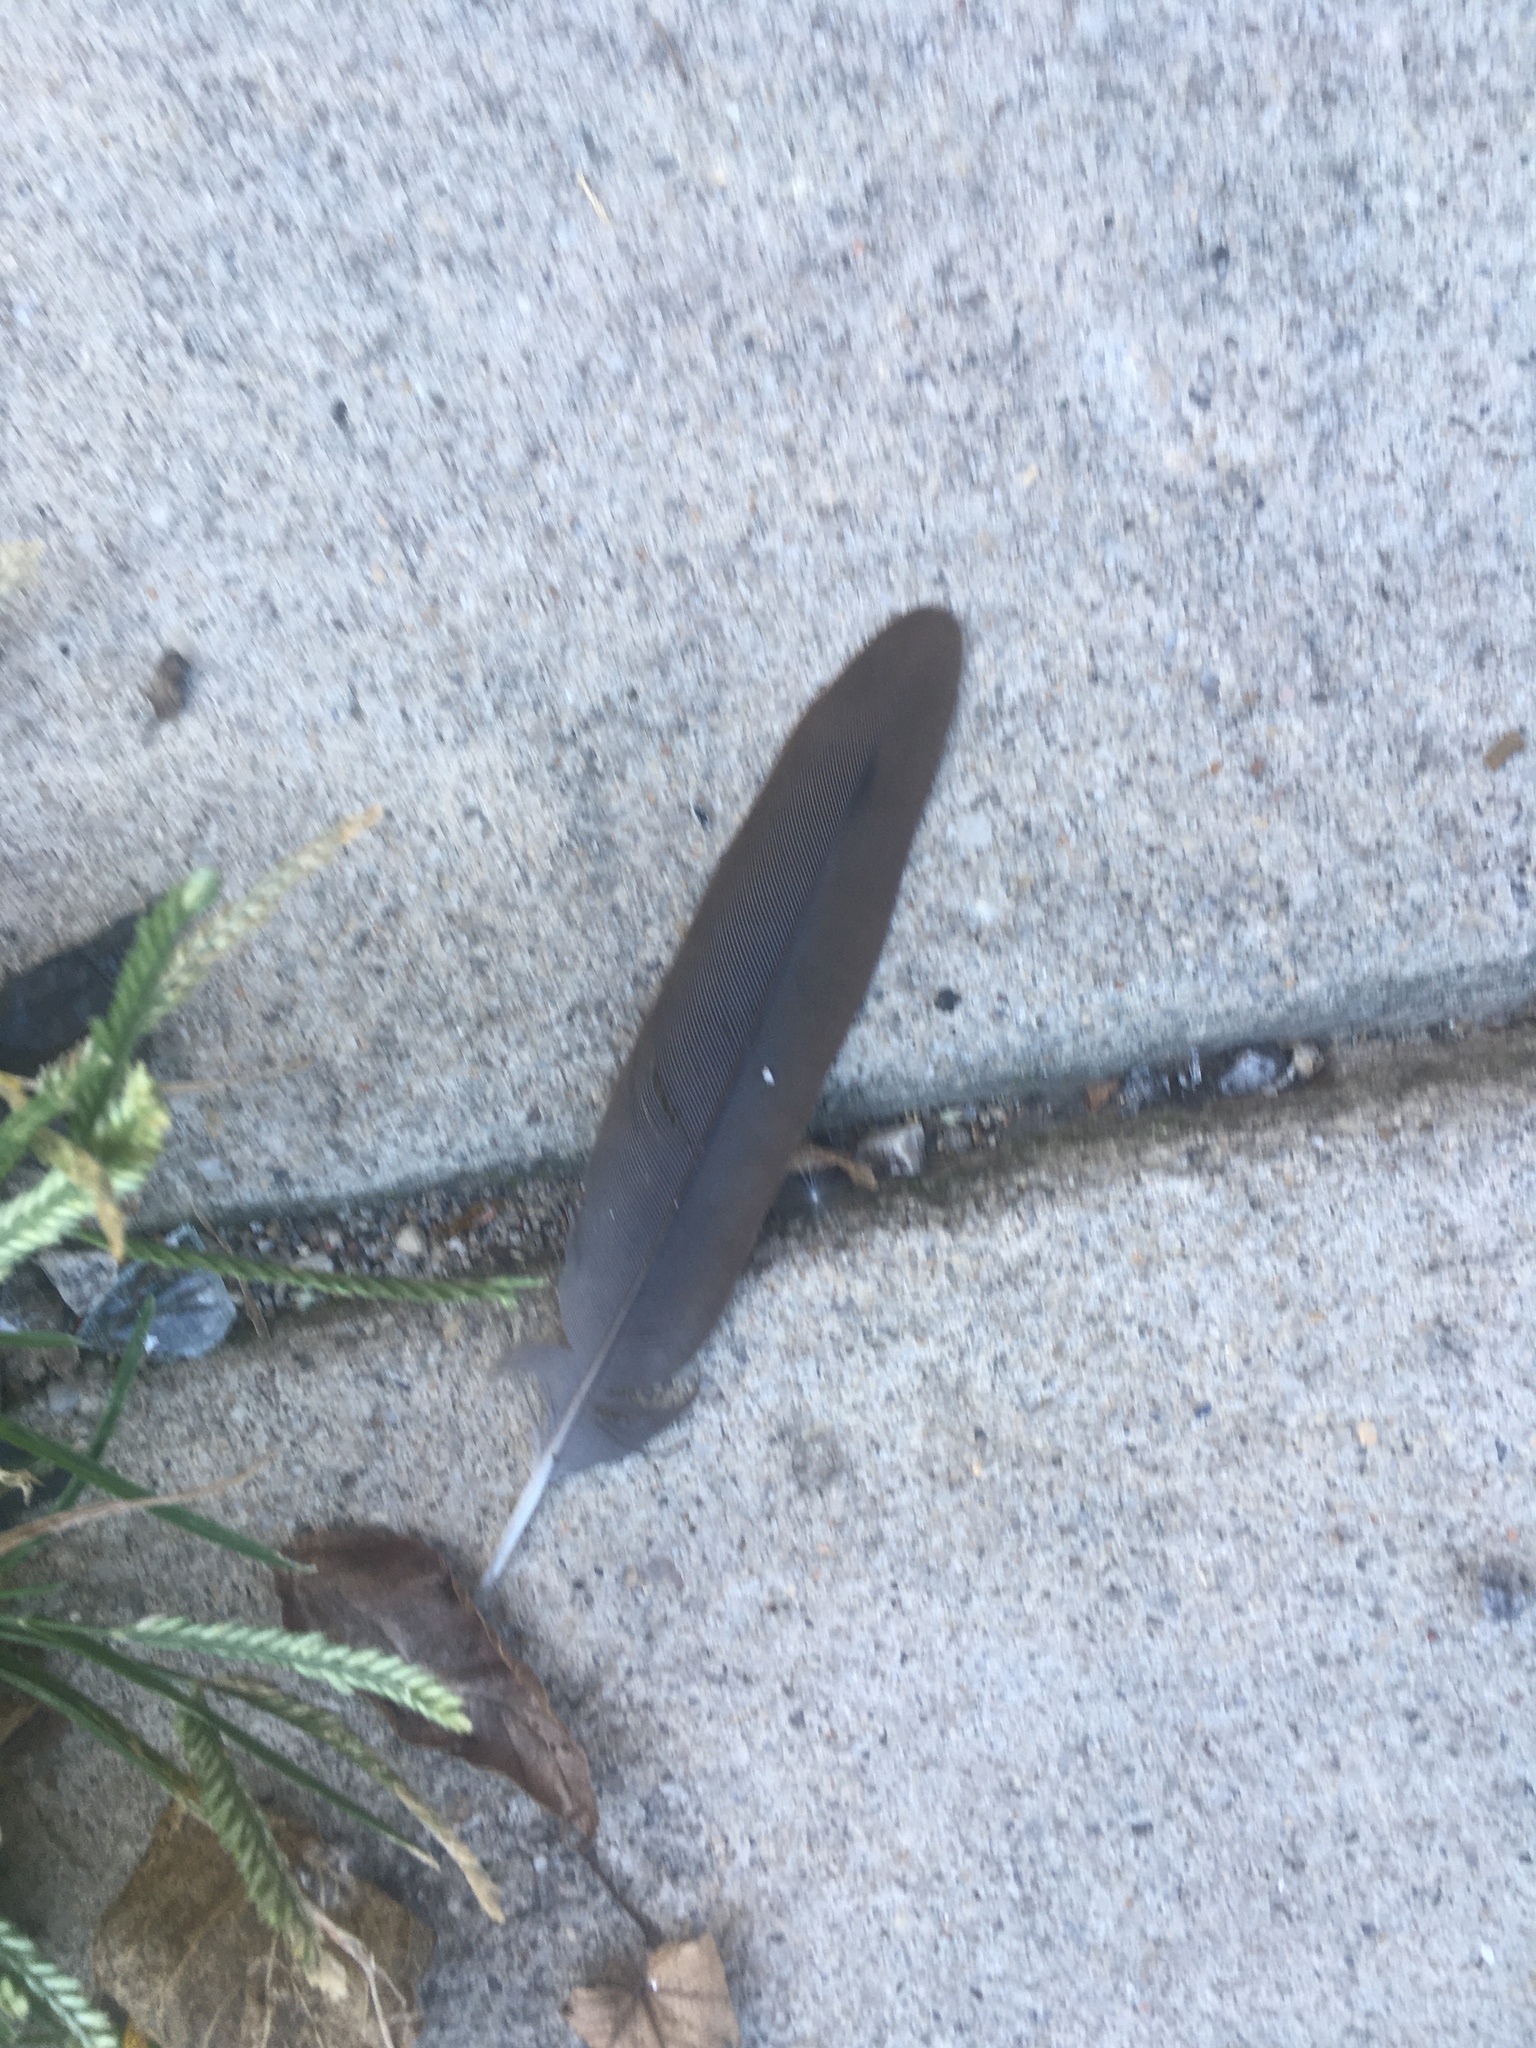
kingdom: Animalia
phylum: Chordata
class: Aves
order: Columbiformes
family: Columbidae
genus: Zenaida
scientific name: Zenaida macroura
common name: Mourning dove
